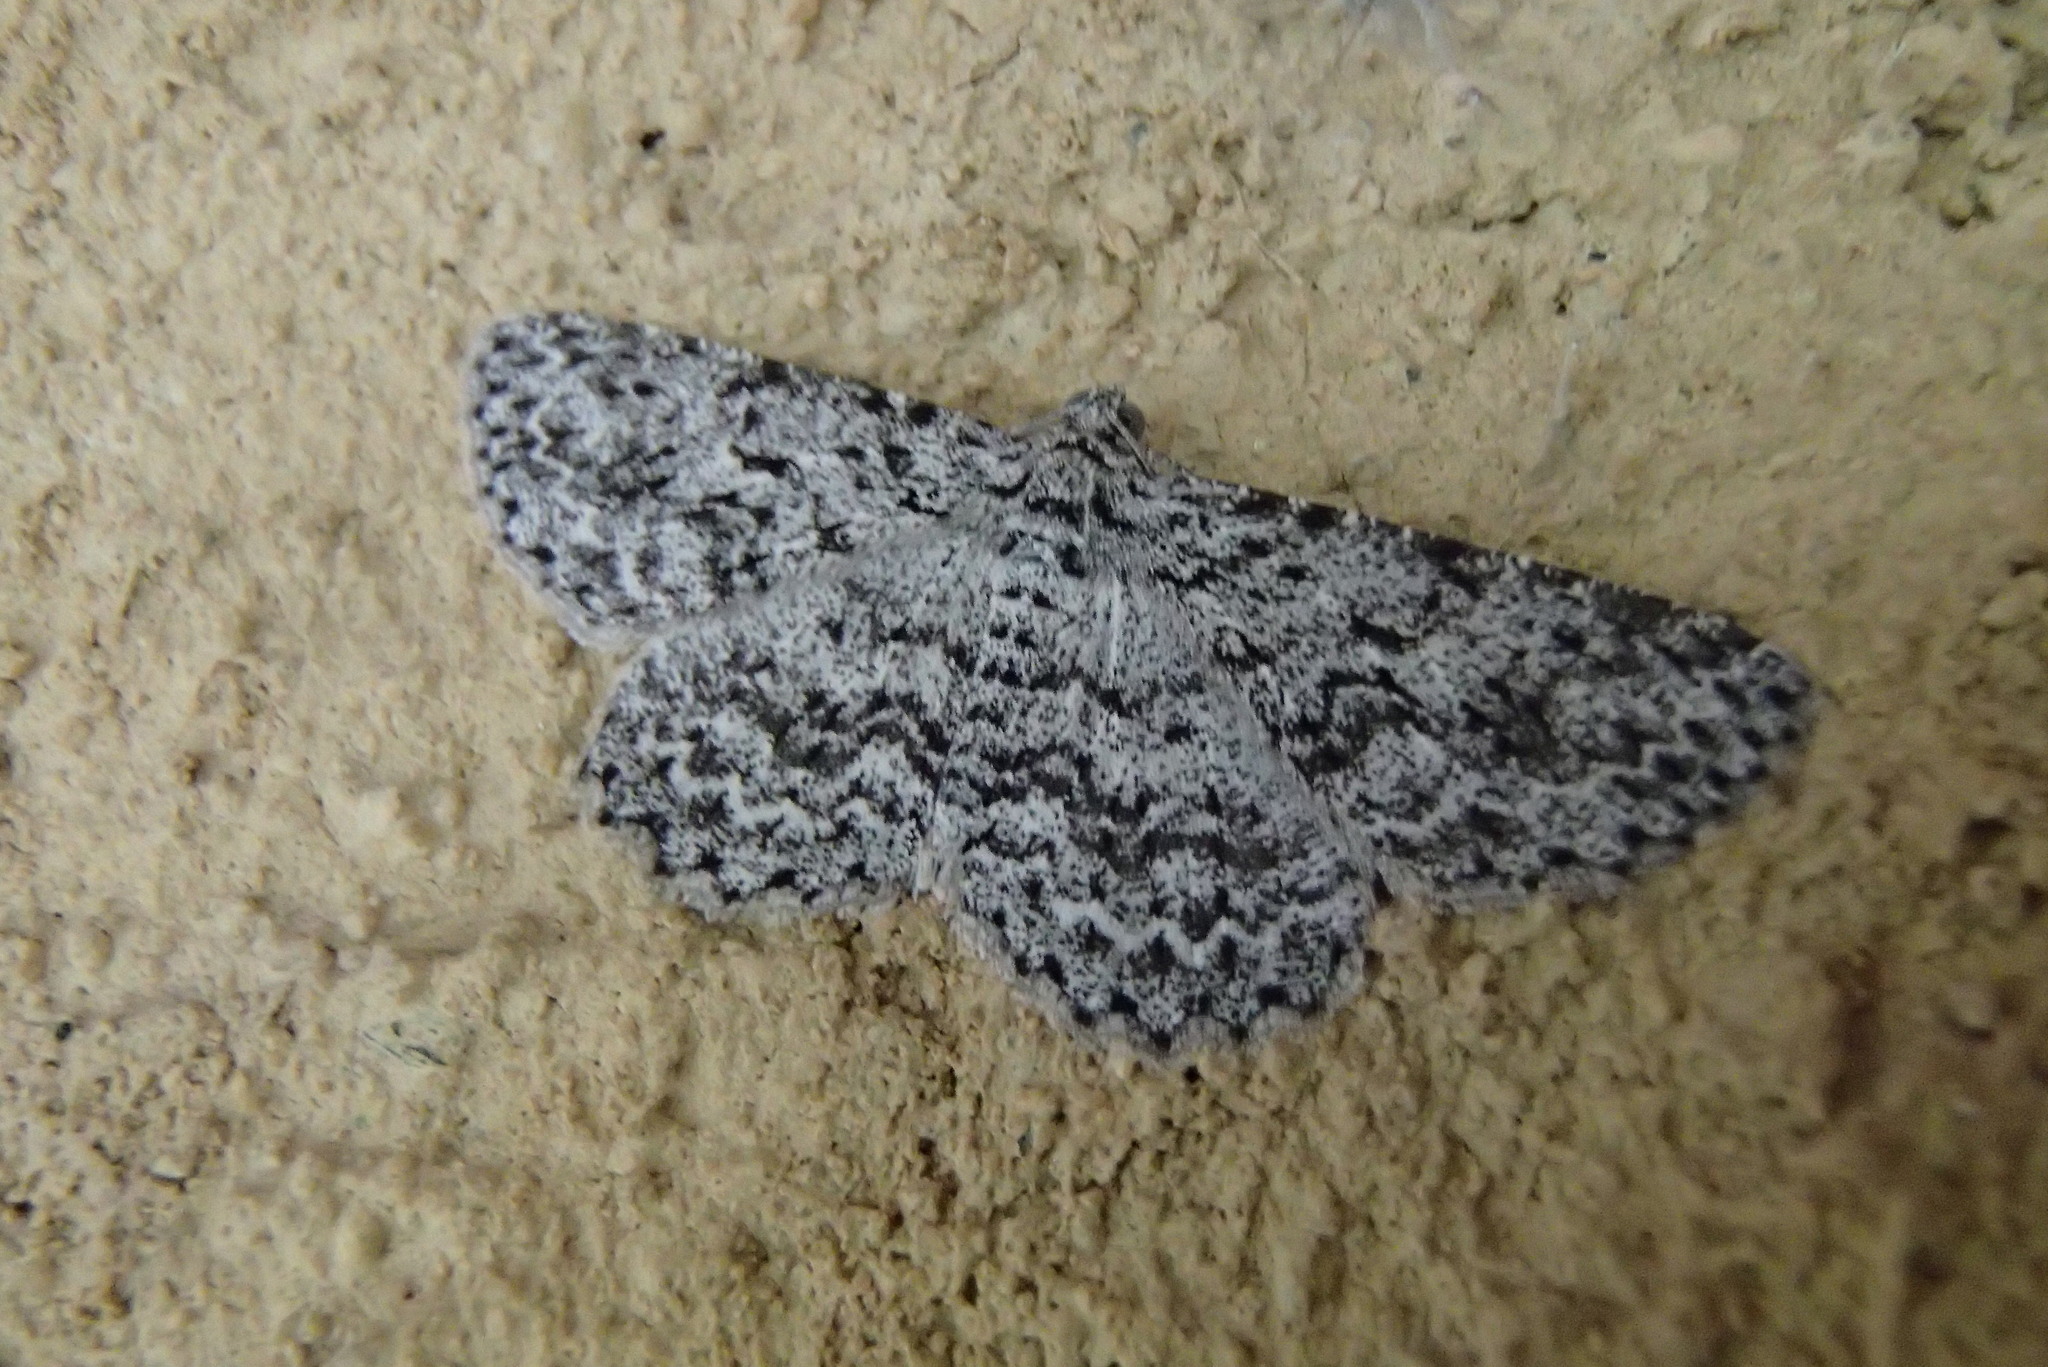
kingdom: Plantae
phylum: Tracheophyta
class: Magnoliopsida
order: Fabales
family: Fabaceae
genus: Tephrosia
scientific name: Tephrosia
